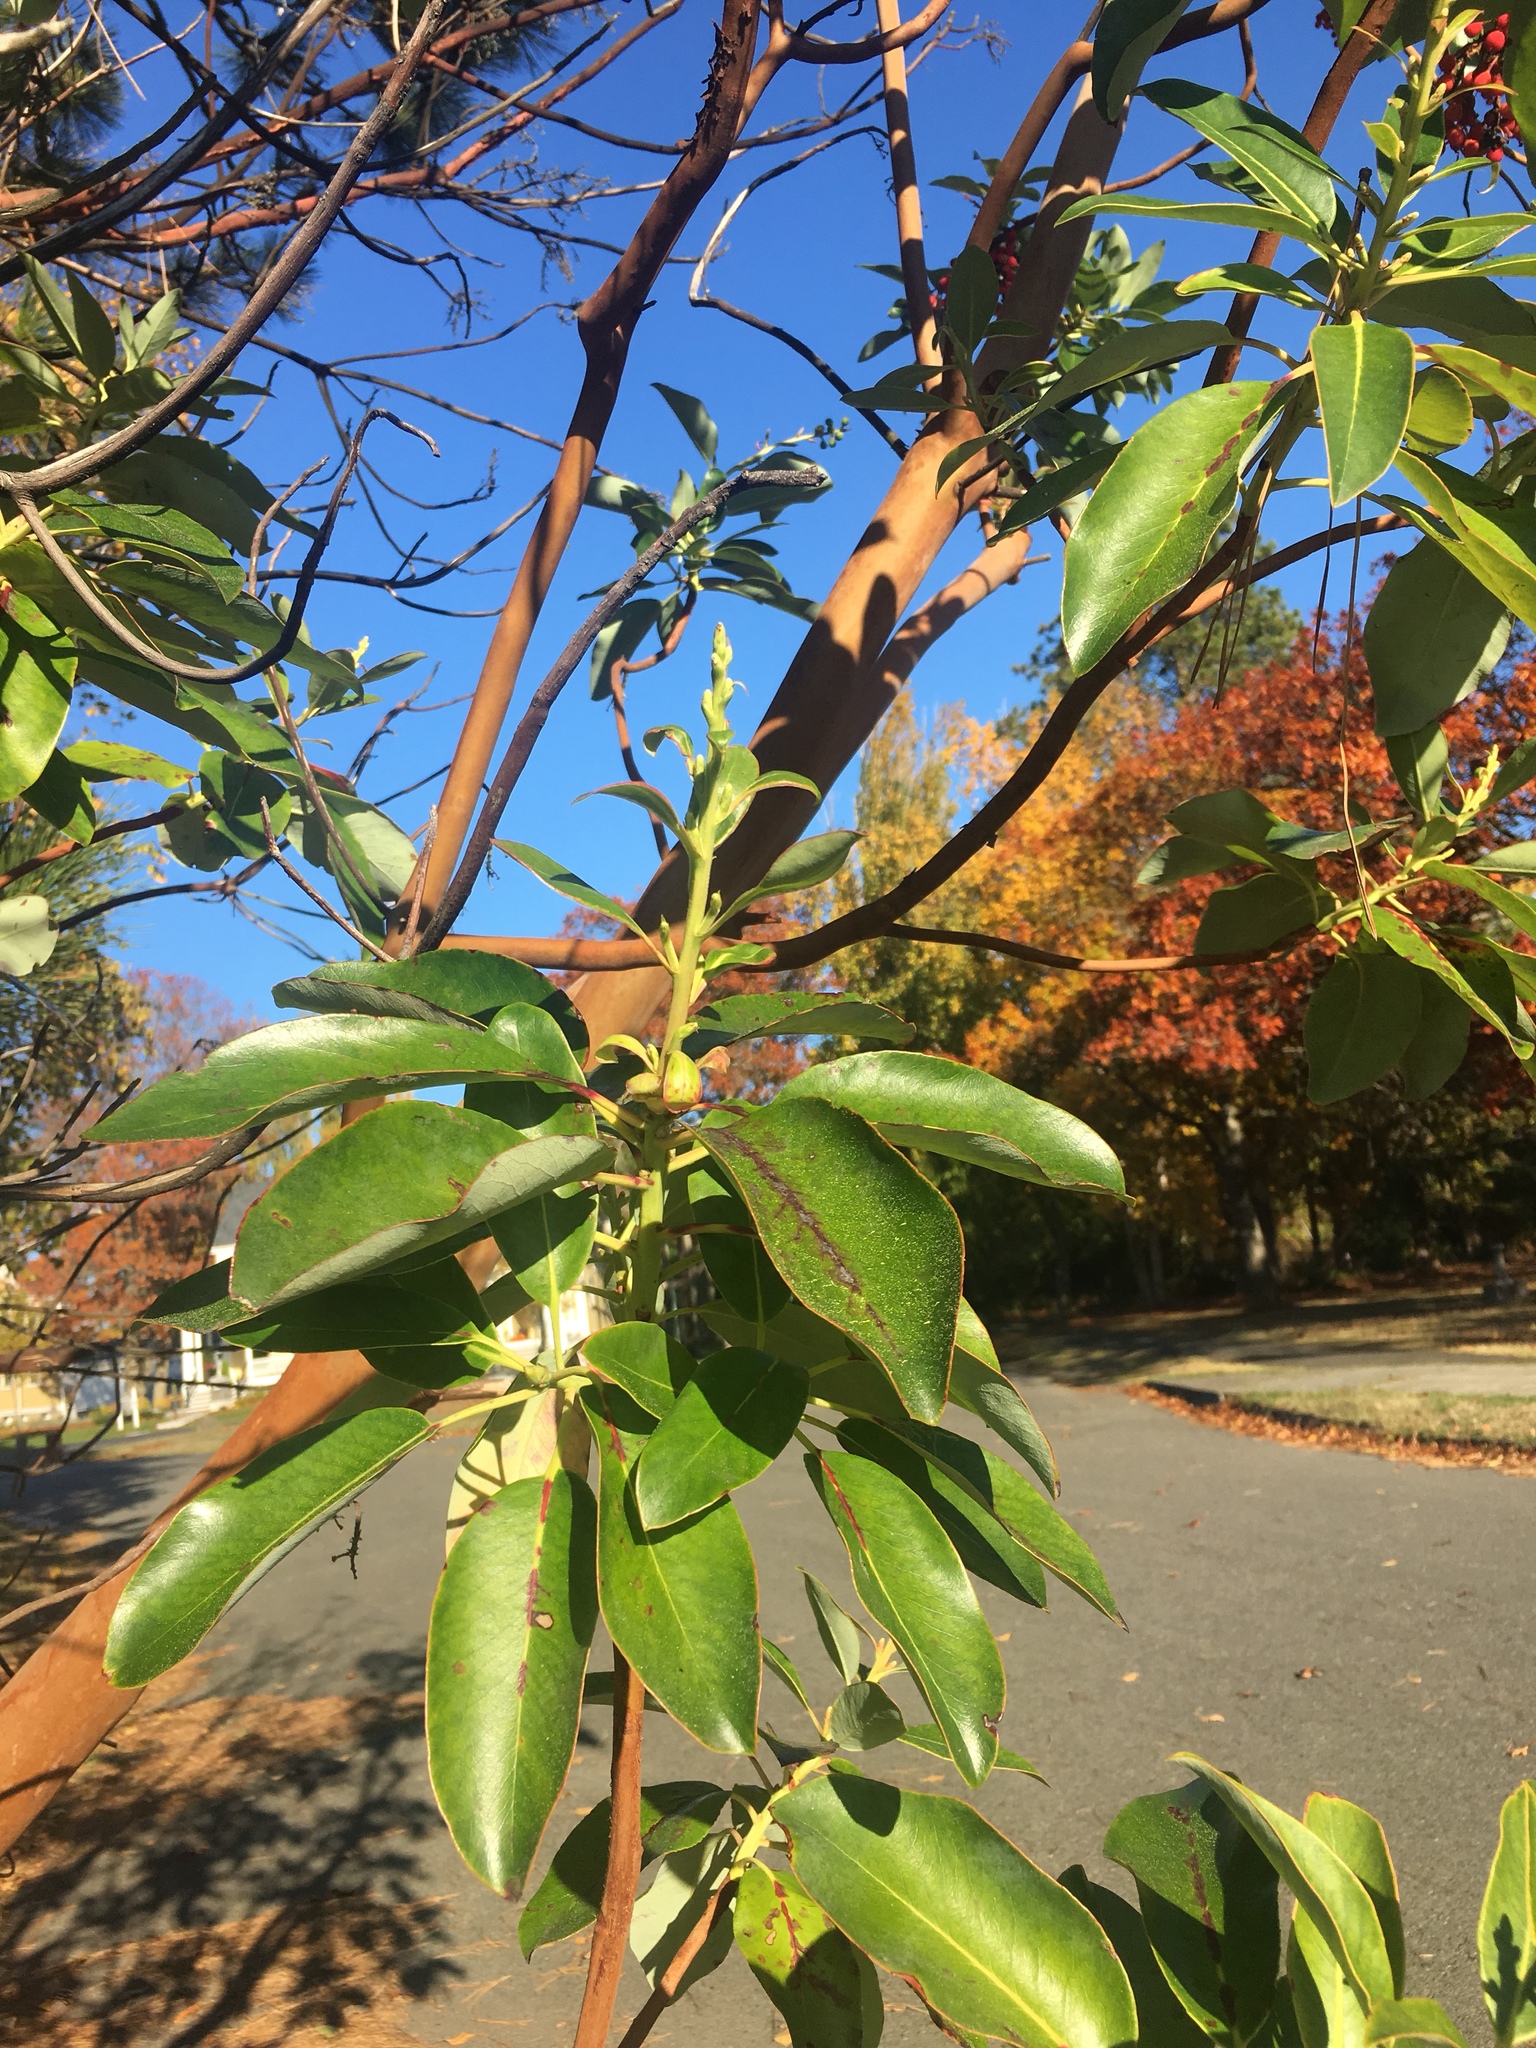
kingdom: Plantae
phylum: Tracheophyta
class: Magnoliopsida
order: Ericales
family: Ericaceae
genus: Arbutus
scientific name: Arbutus menziesii
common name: Pacific madrone
